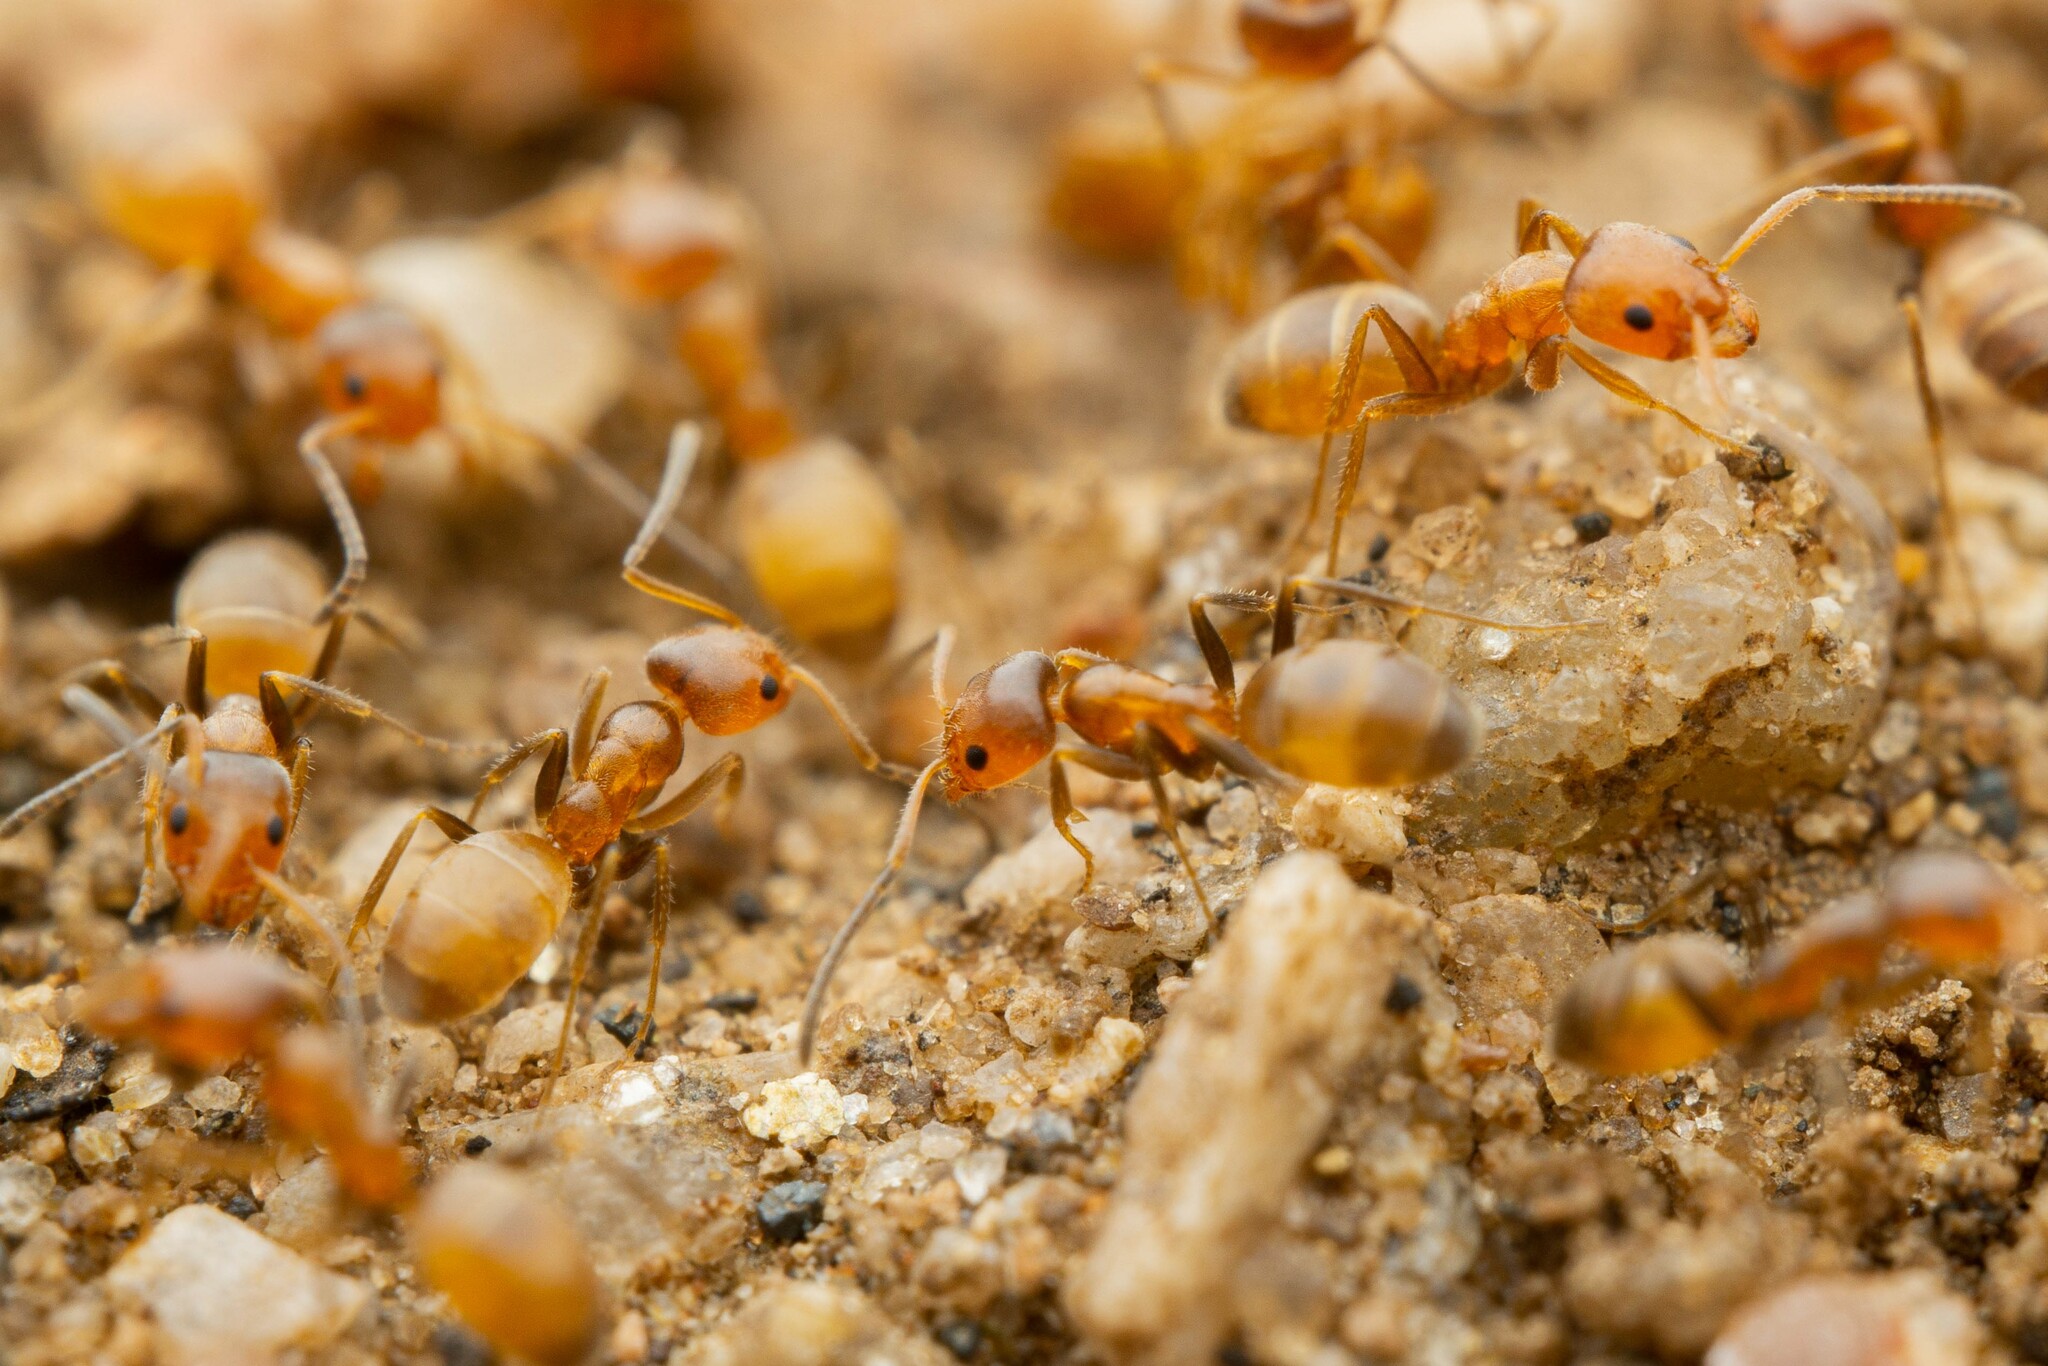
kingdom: Animalia
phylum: Arthropoda
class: Insecta
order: Hymenoptera
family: Formicidae
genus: Forelius
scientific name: Forelius mccooki
